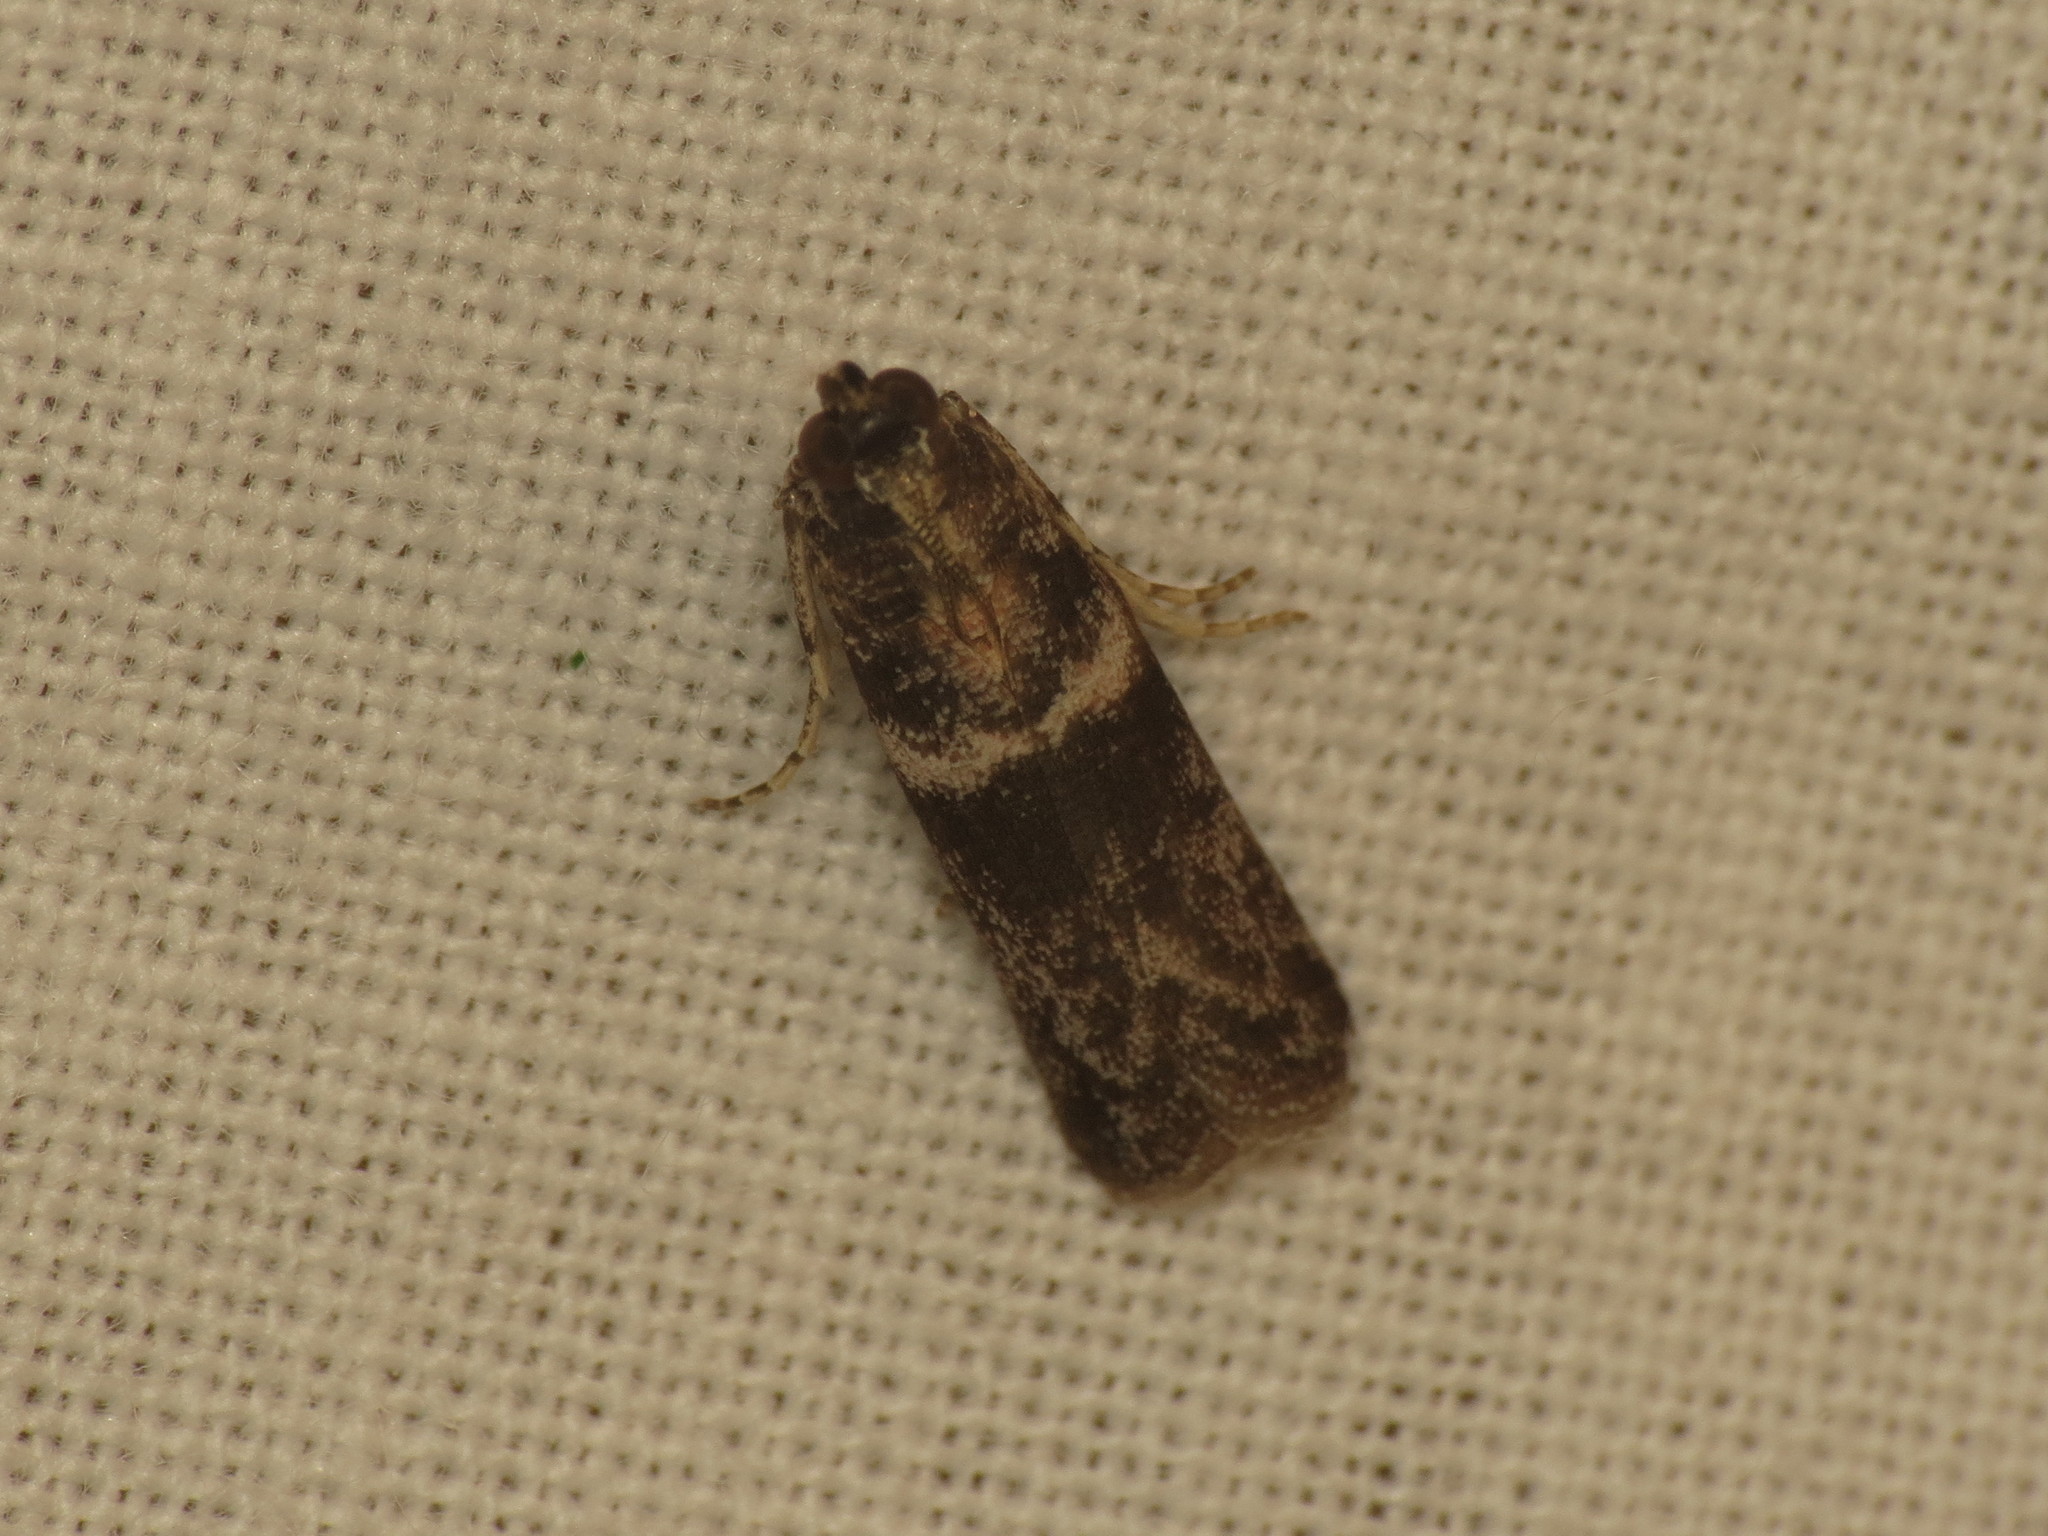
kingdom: Animalia
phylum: Arthropoda
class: Insecta
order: Lepidoptera
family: Pyralidae
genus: Tylochares
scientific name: Tylochares cosmiella
